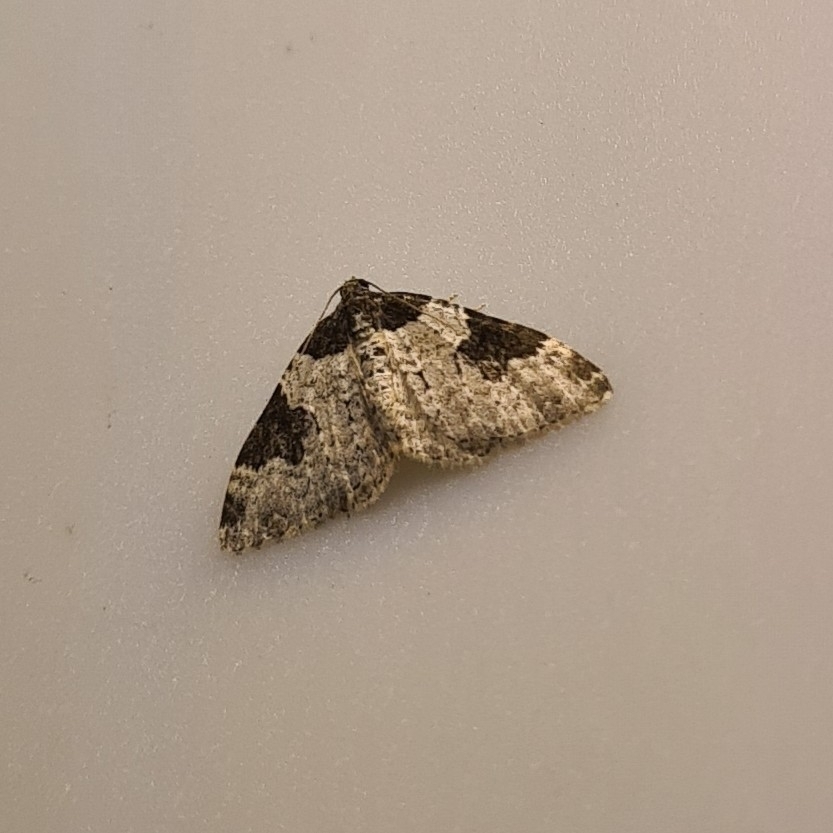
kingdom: Animalia
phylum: Arthropoda
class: Insecta
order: Lepidoptera
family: Geometridae
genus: Xanthorhoe
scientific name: Xanthorhoe fluctuata
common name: Garden carpet
